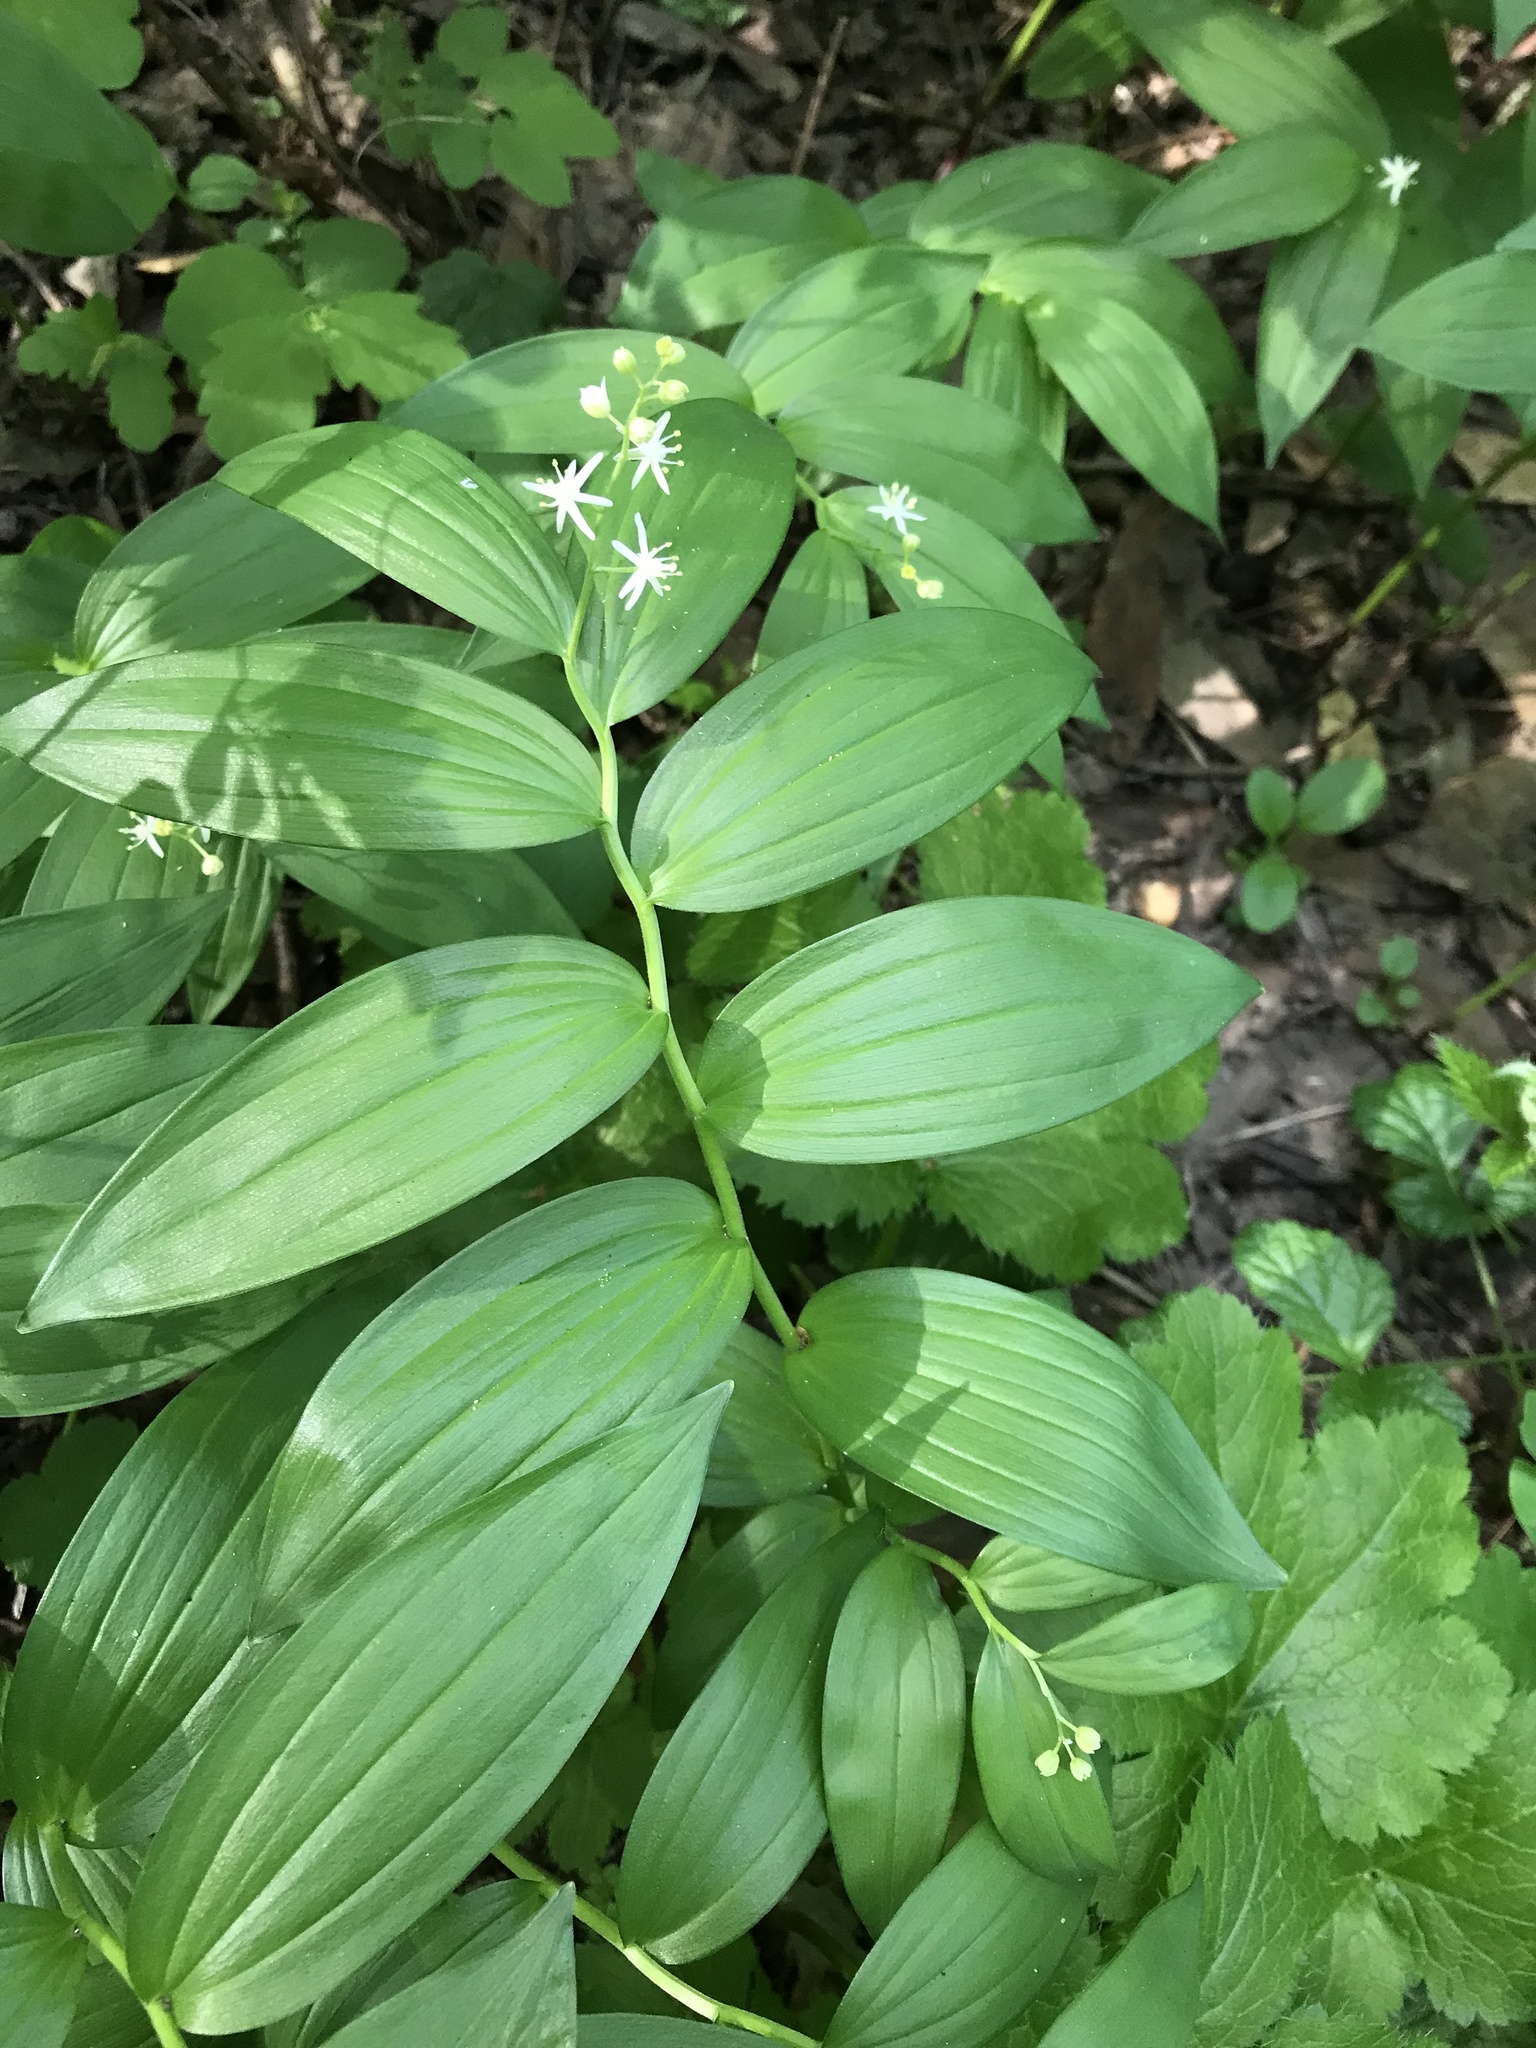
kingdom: Plantae
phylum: Tracheophyta
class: Liliopsida
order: Asparagales
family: Asparagaceae
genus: Maianthemum
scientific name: Maianthemum stellatum
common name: Little false solomon's seal
